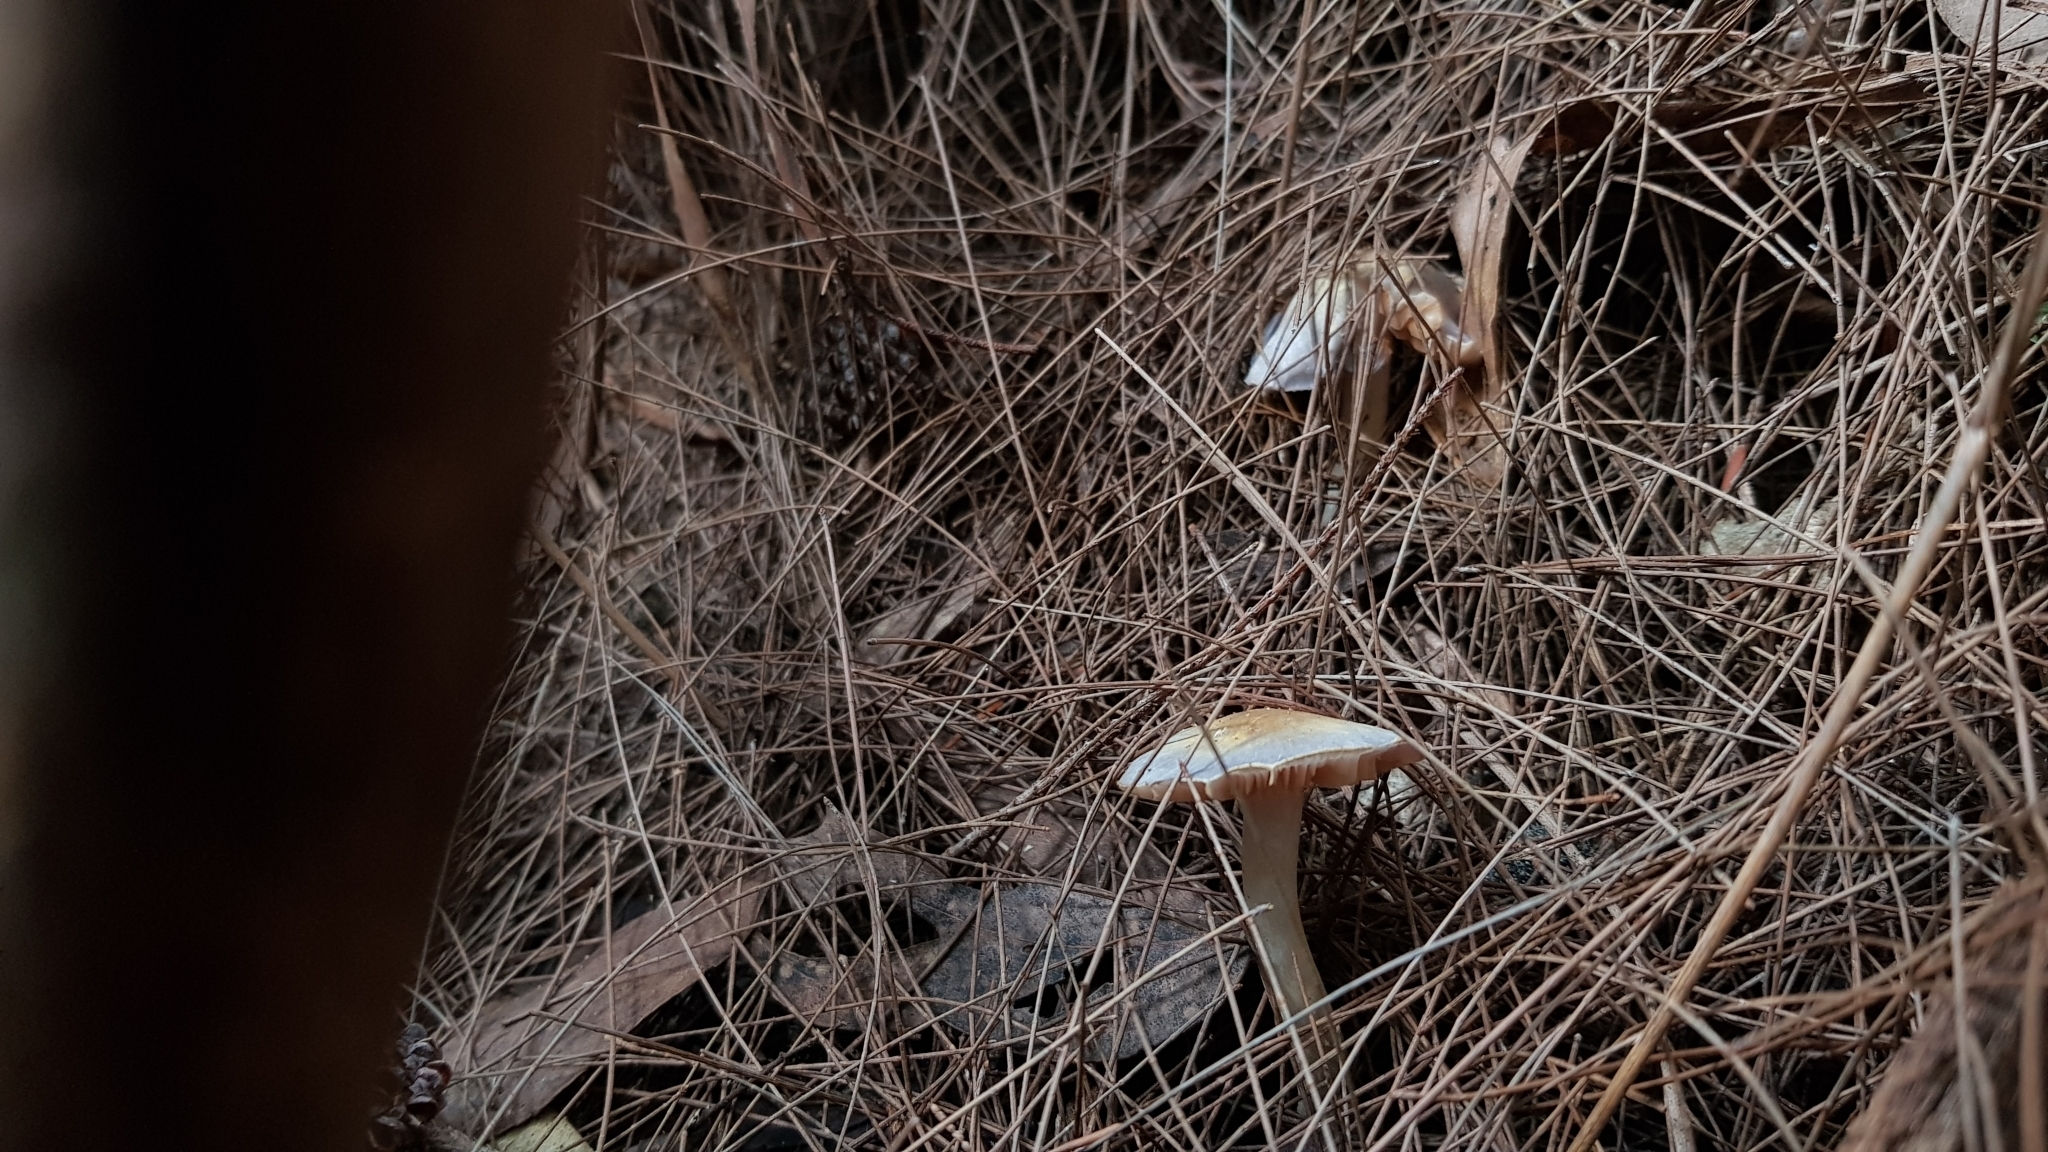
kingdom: Fungi
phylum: Basidiomycota
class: Agaricomycetes
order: Agaricales
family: Cortinariaceae
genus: Cortinarius
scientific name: Cortinarius rotundisporus
